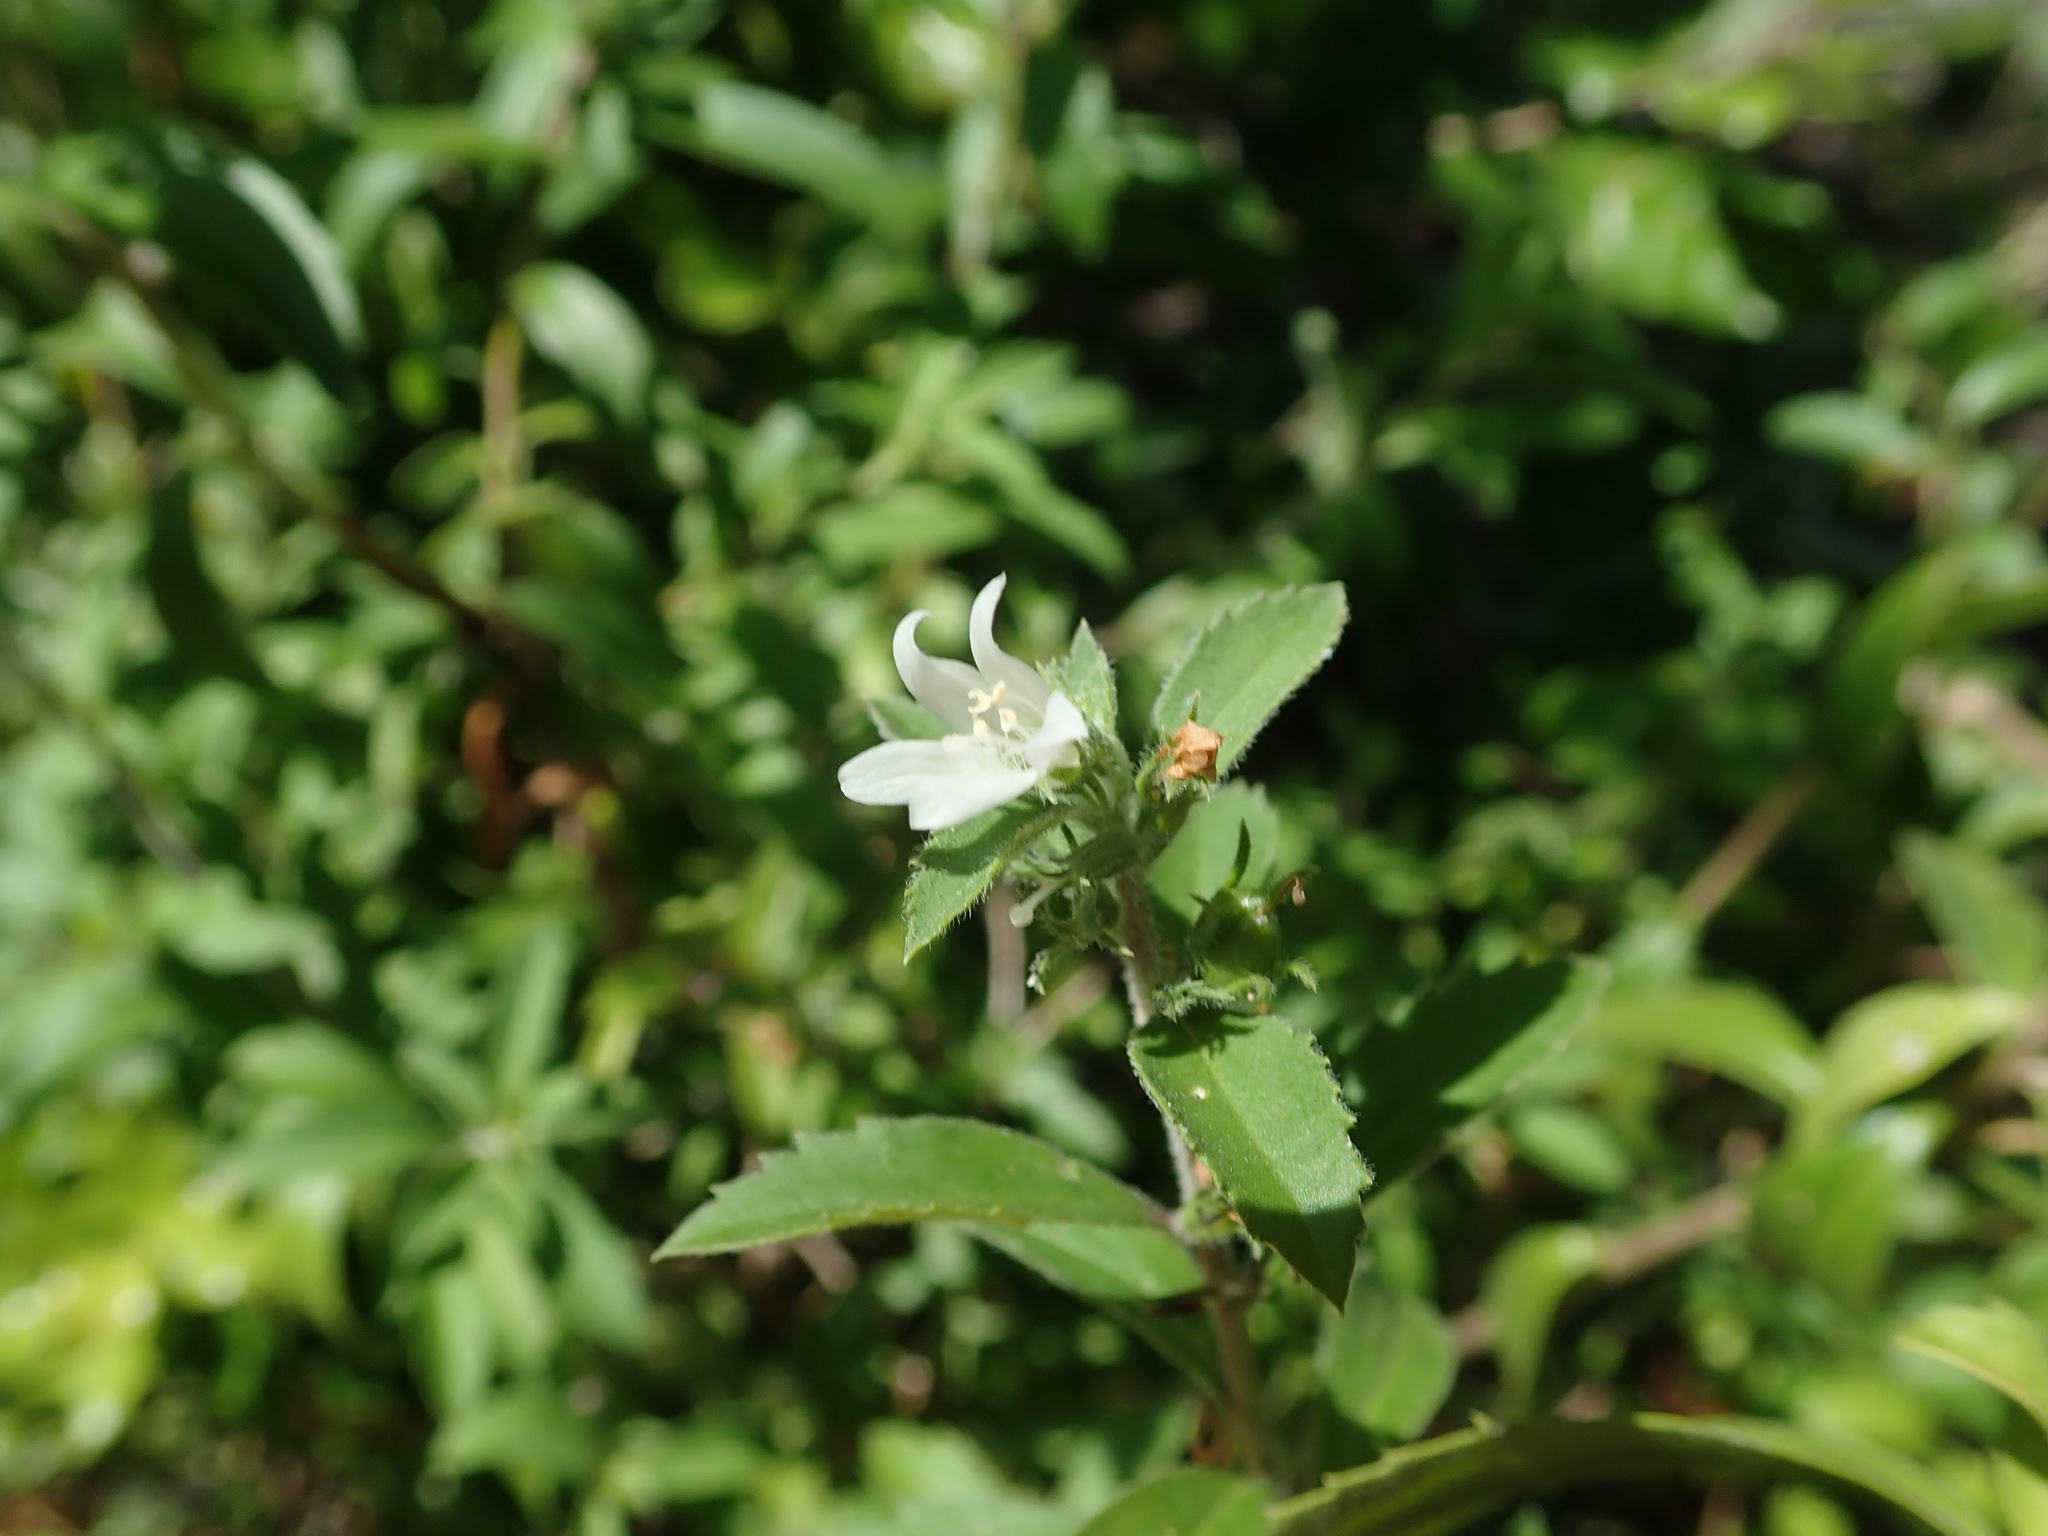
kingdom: Plantae
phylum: Tracheophyta
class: Magnoliopsida
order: Lamiales
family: Scrophulariaceae
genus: Capraria
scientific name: Capraria biflora
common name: Goatweed
